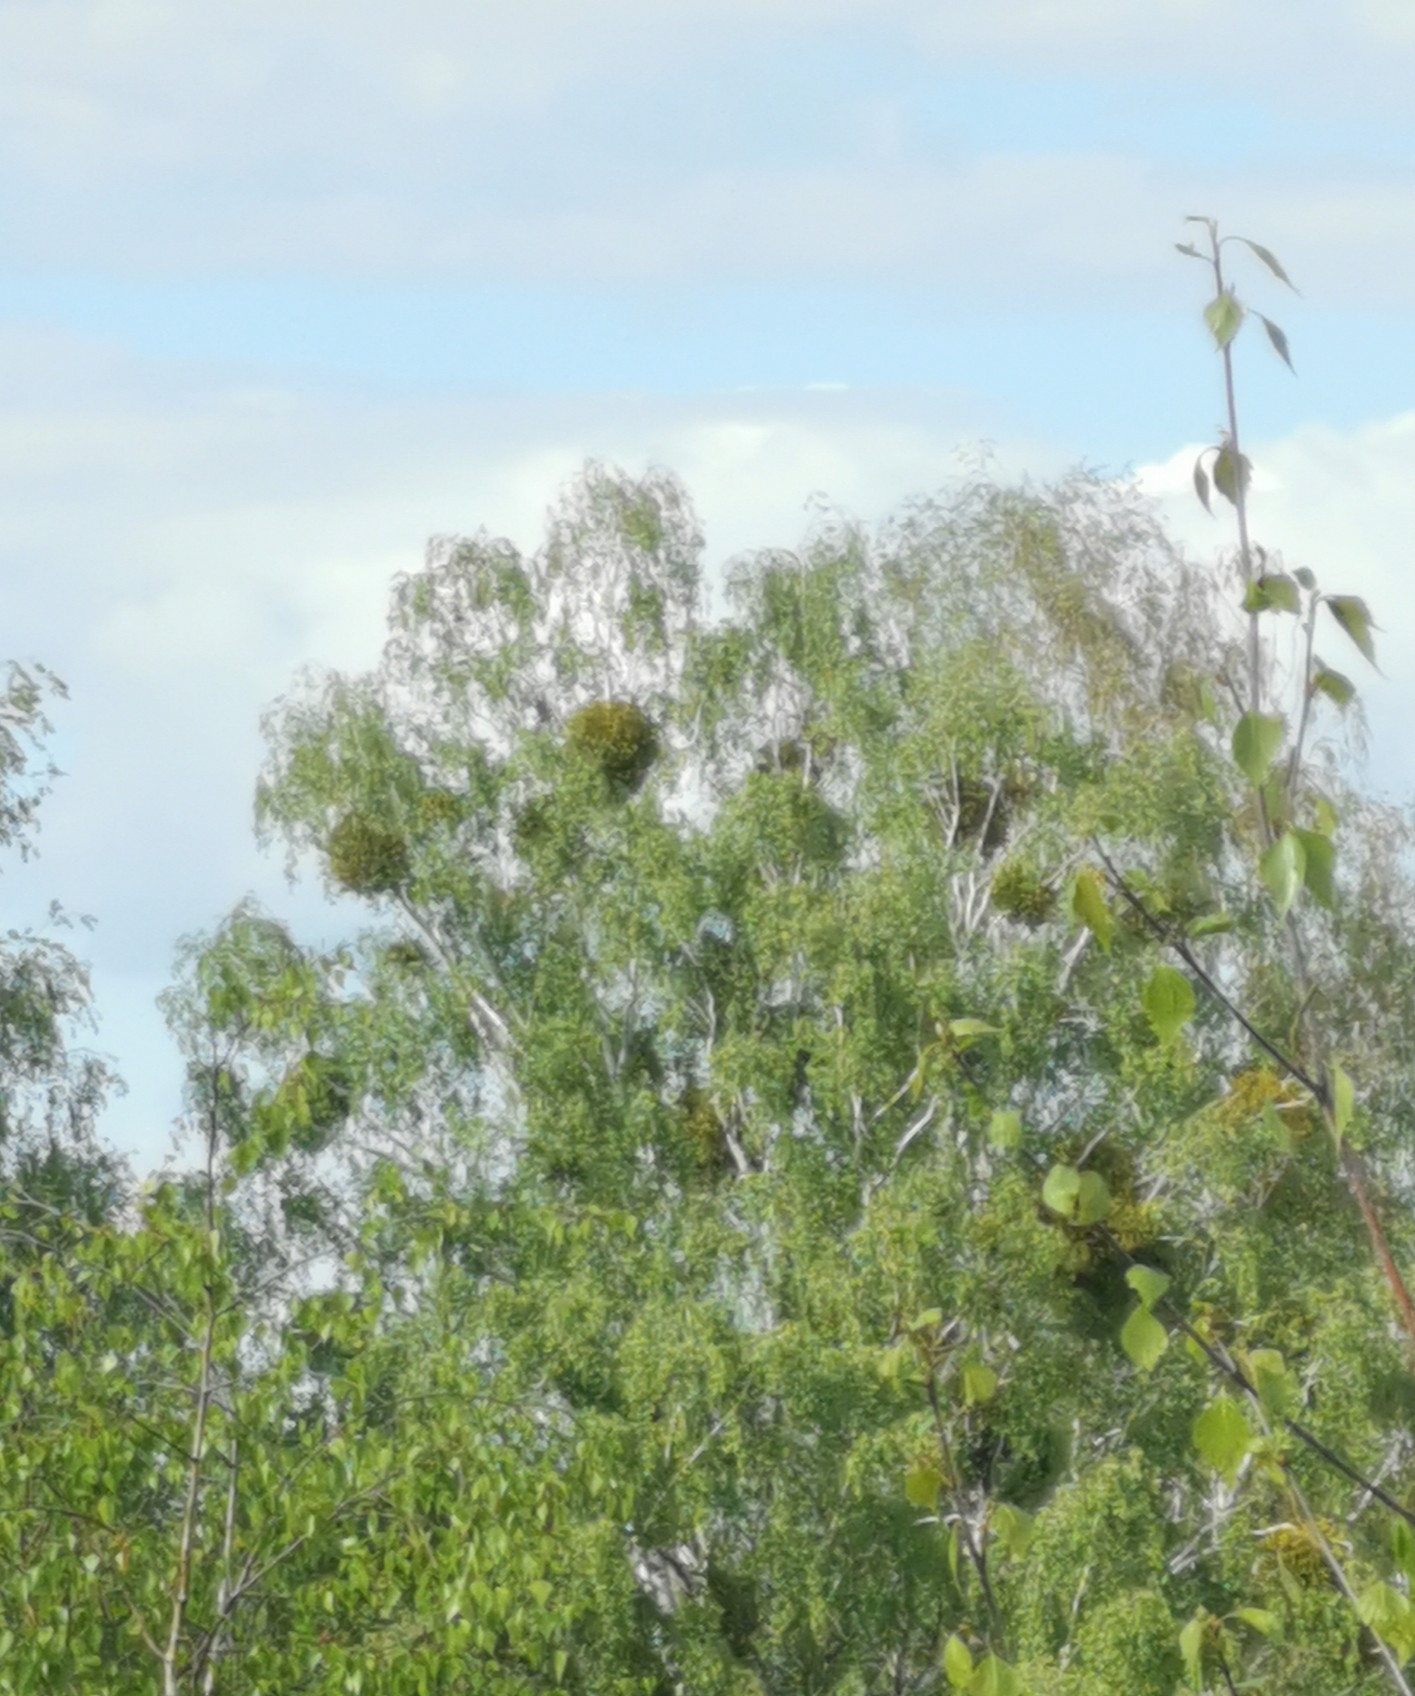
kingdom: Plantae
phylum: Tracheophyta
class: Magnoliopsida
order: Santalales
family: Viscaceae
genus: Viscum
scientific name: Viscum album
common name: Mistletoe
